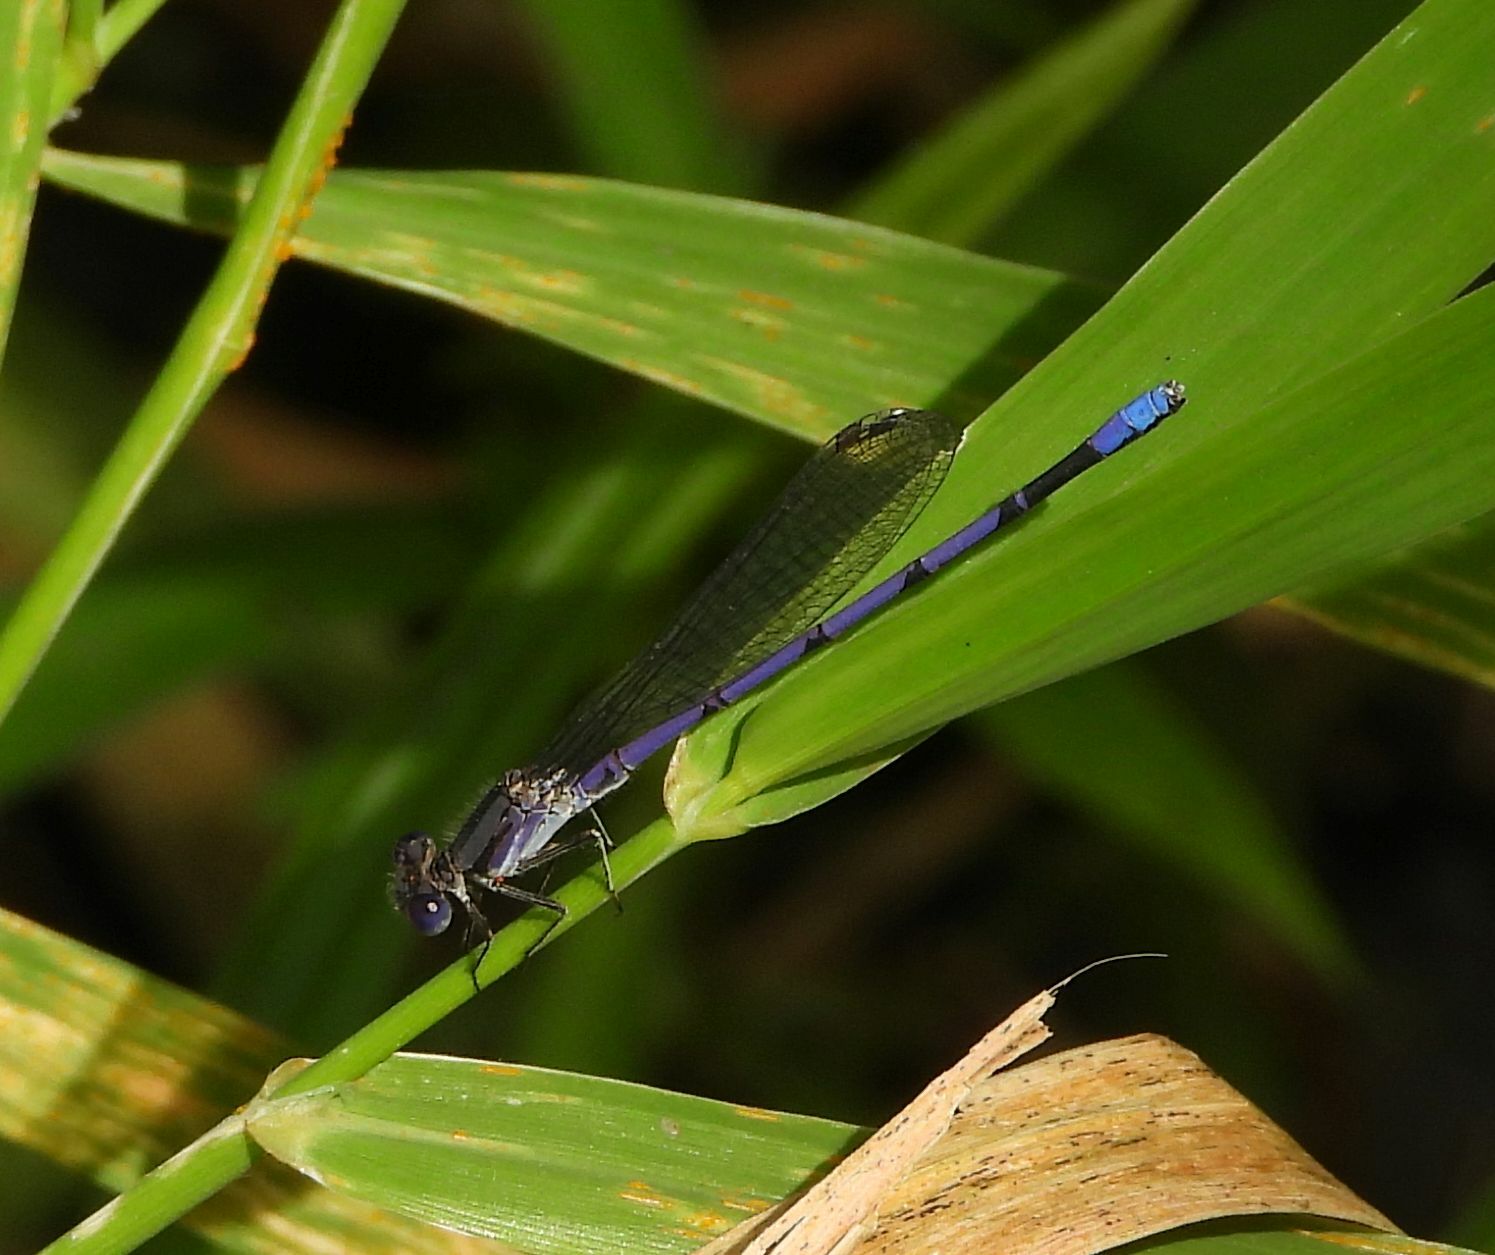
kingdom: Animalia
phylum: Arthropoda
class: Insecta
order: Odonata
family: Coenagrionidae
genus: Argia
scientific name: Argia fumipennis
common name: Variable dancer
